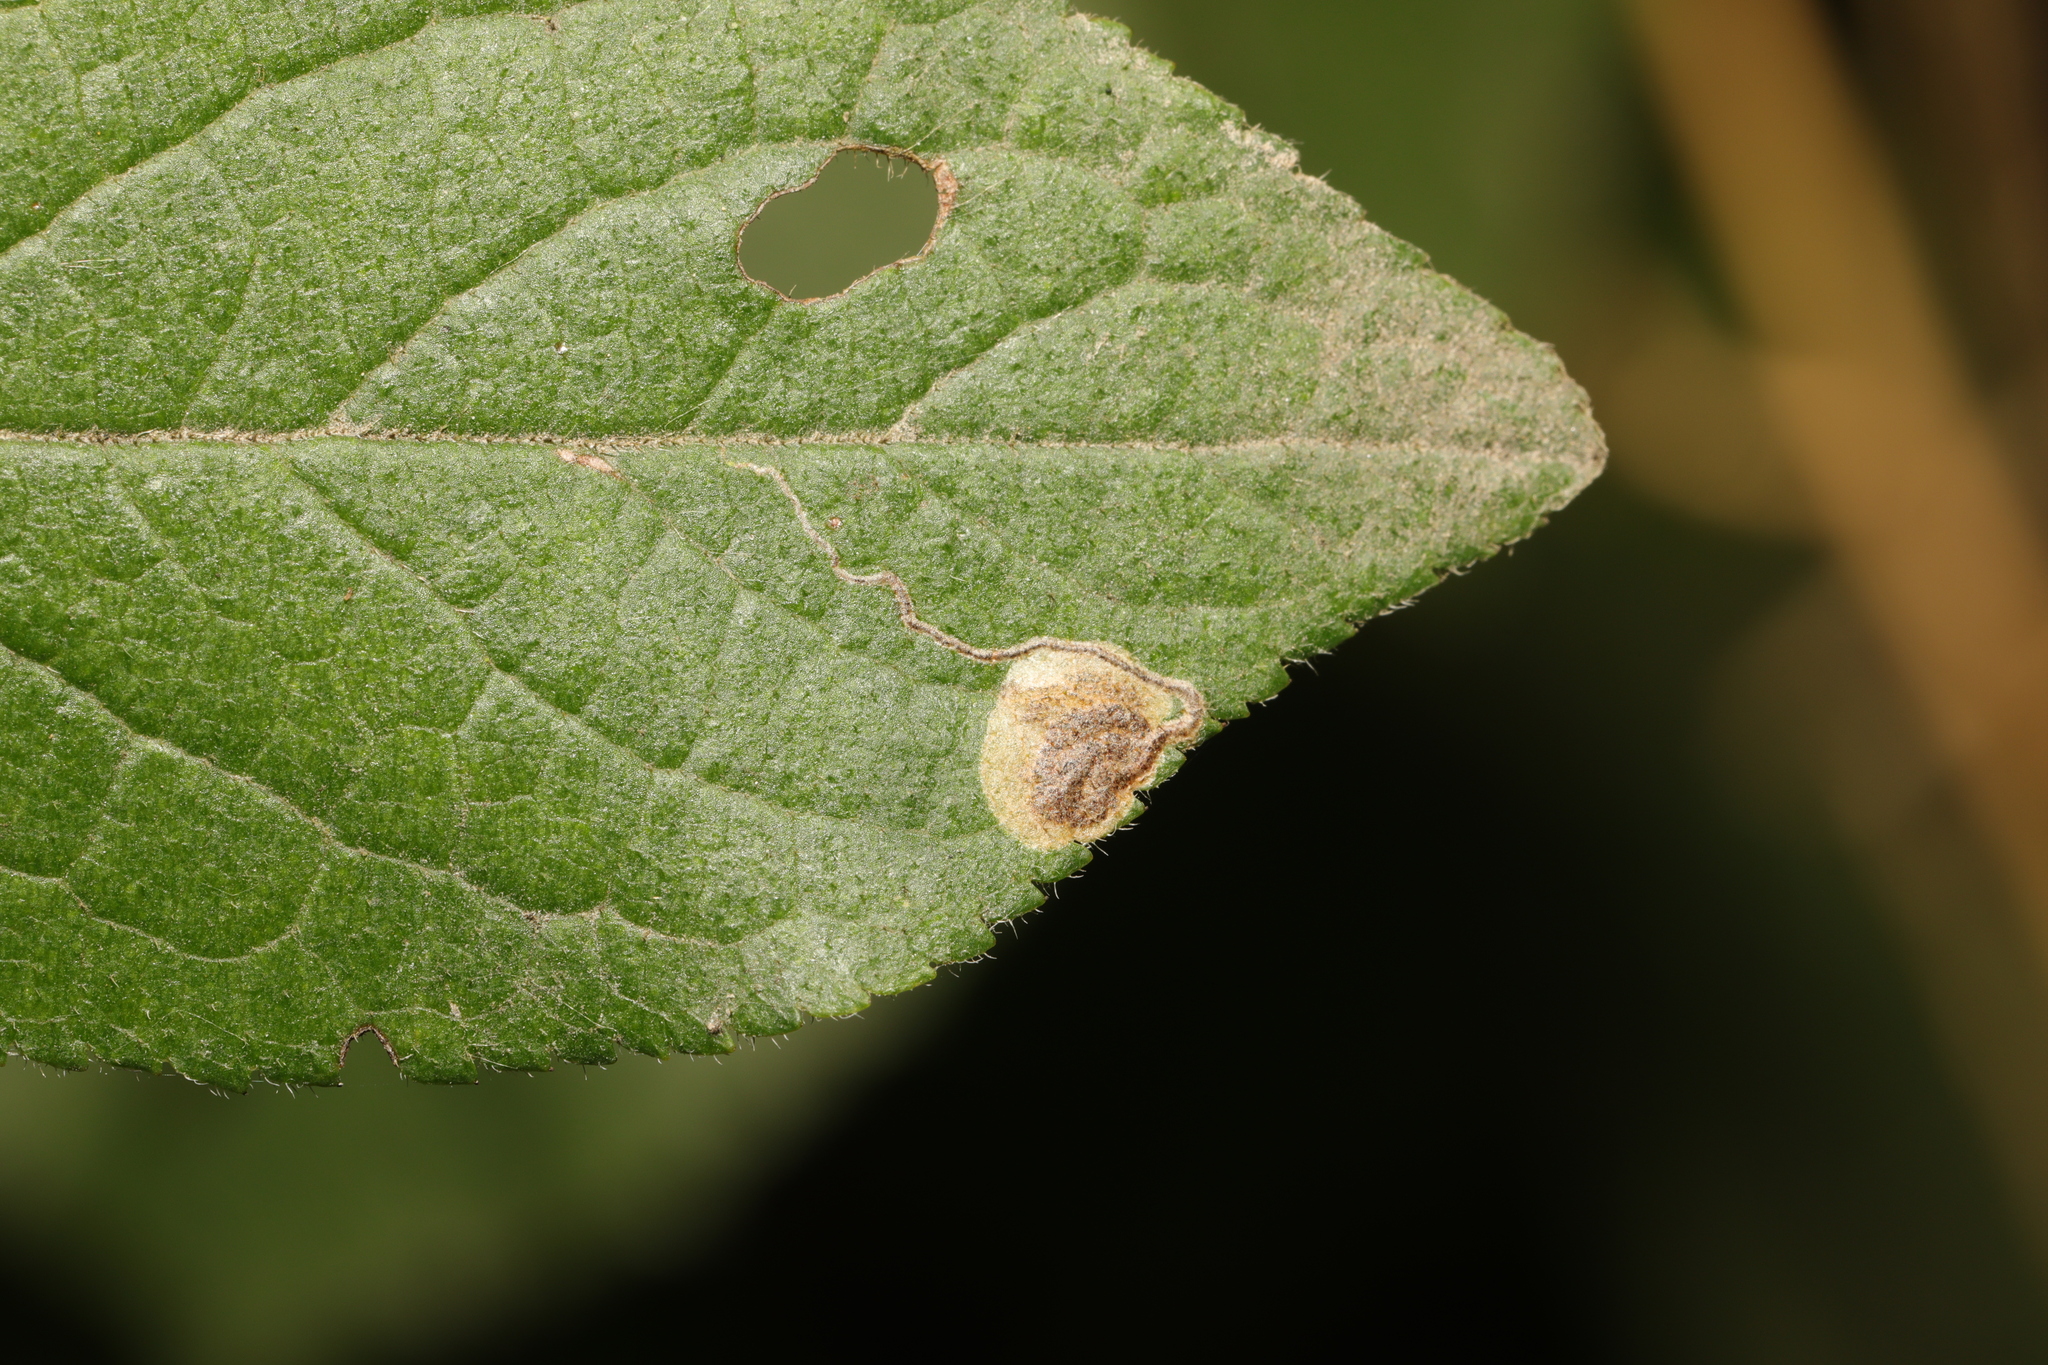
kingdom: Animalia
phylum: Arthropoda
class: Insecta
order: Lepidoptera
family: Nepticulidae
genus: Stigmella
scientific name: Stigmella plagicolella
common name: Scrubland pigmy
